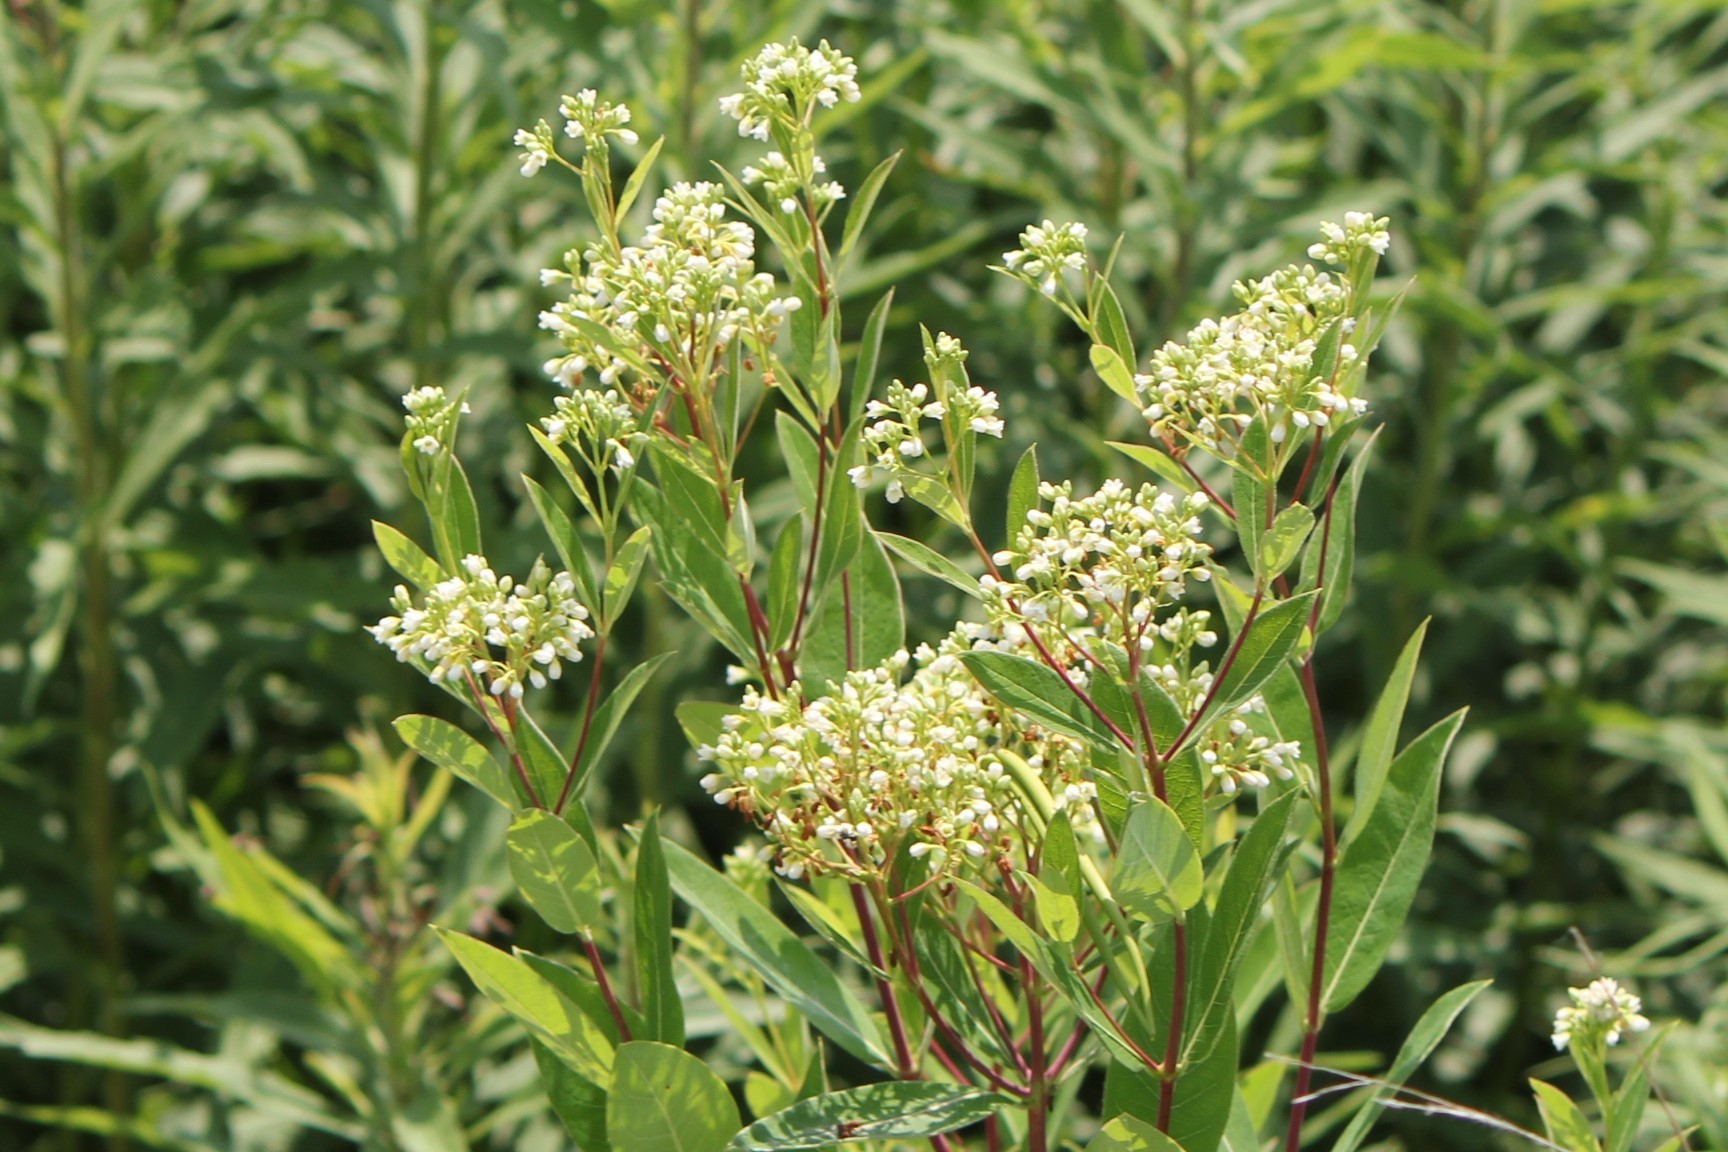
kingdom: Plantae
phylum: Tracheophyta
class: Magnoliopsida
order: Gentianales
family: Apocynaceae
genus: Apocynum
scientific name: Apocynum cannabinum
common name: Hemp dogbane
